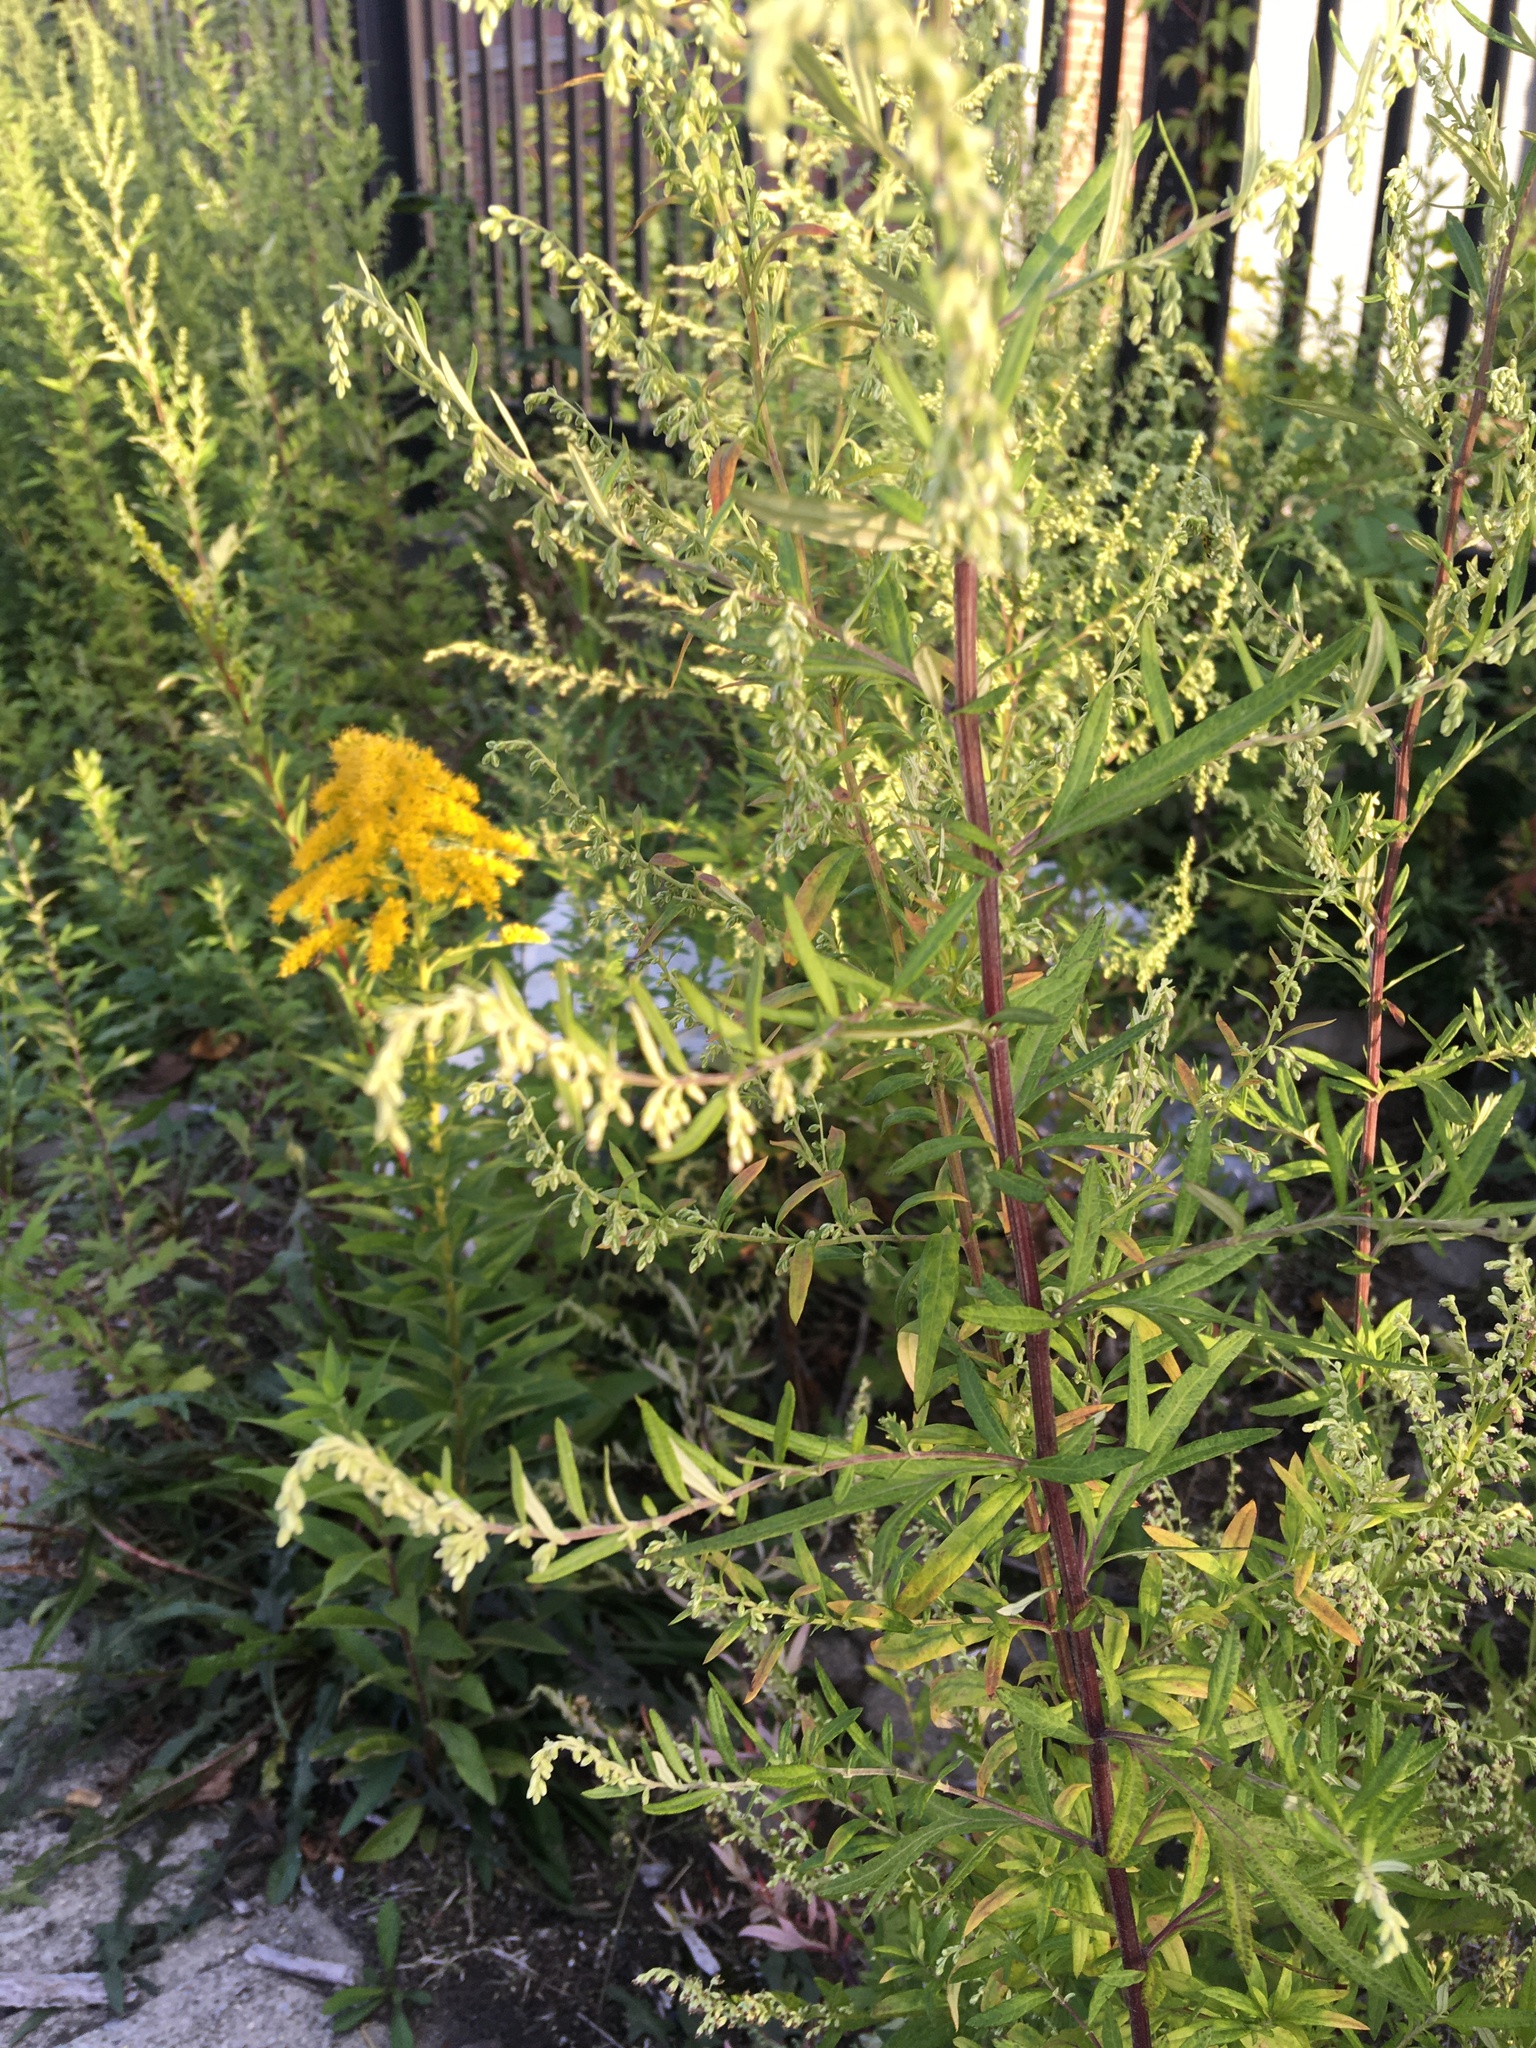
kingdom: Plantae
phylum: Tracheophyta
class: Magnoliopsida
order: Asterales
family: Asteraceae
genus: Artemisia
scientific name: Artemisia vulgaris
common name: Mugwort
